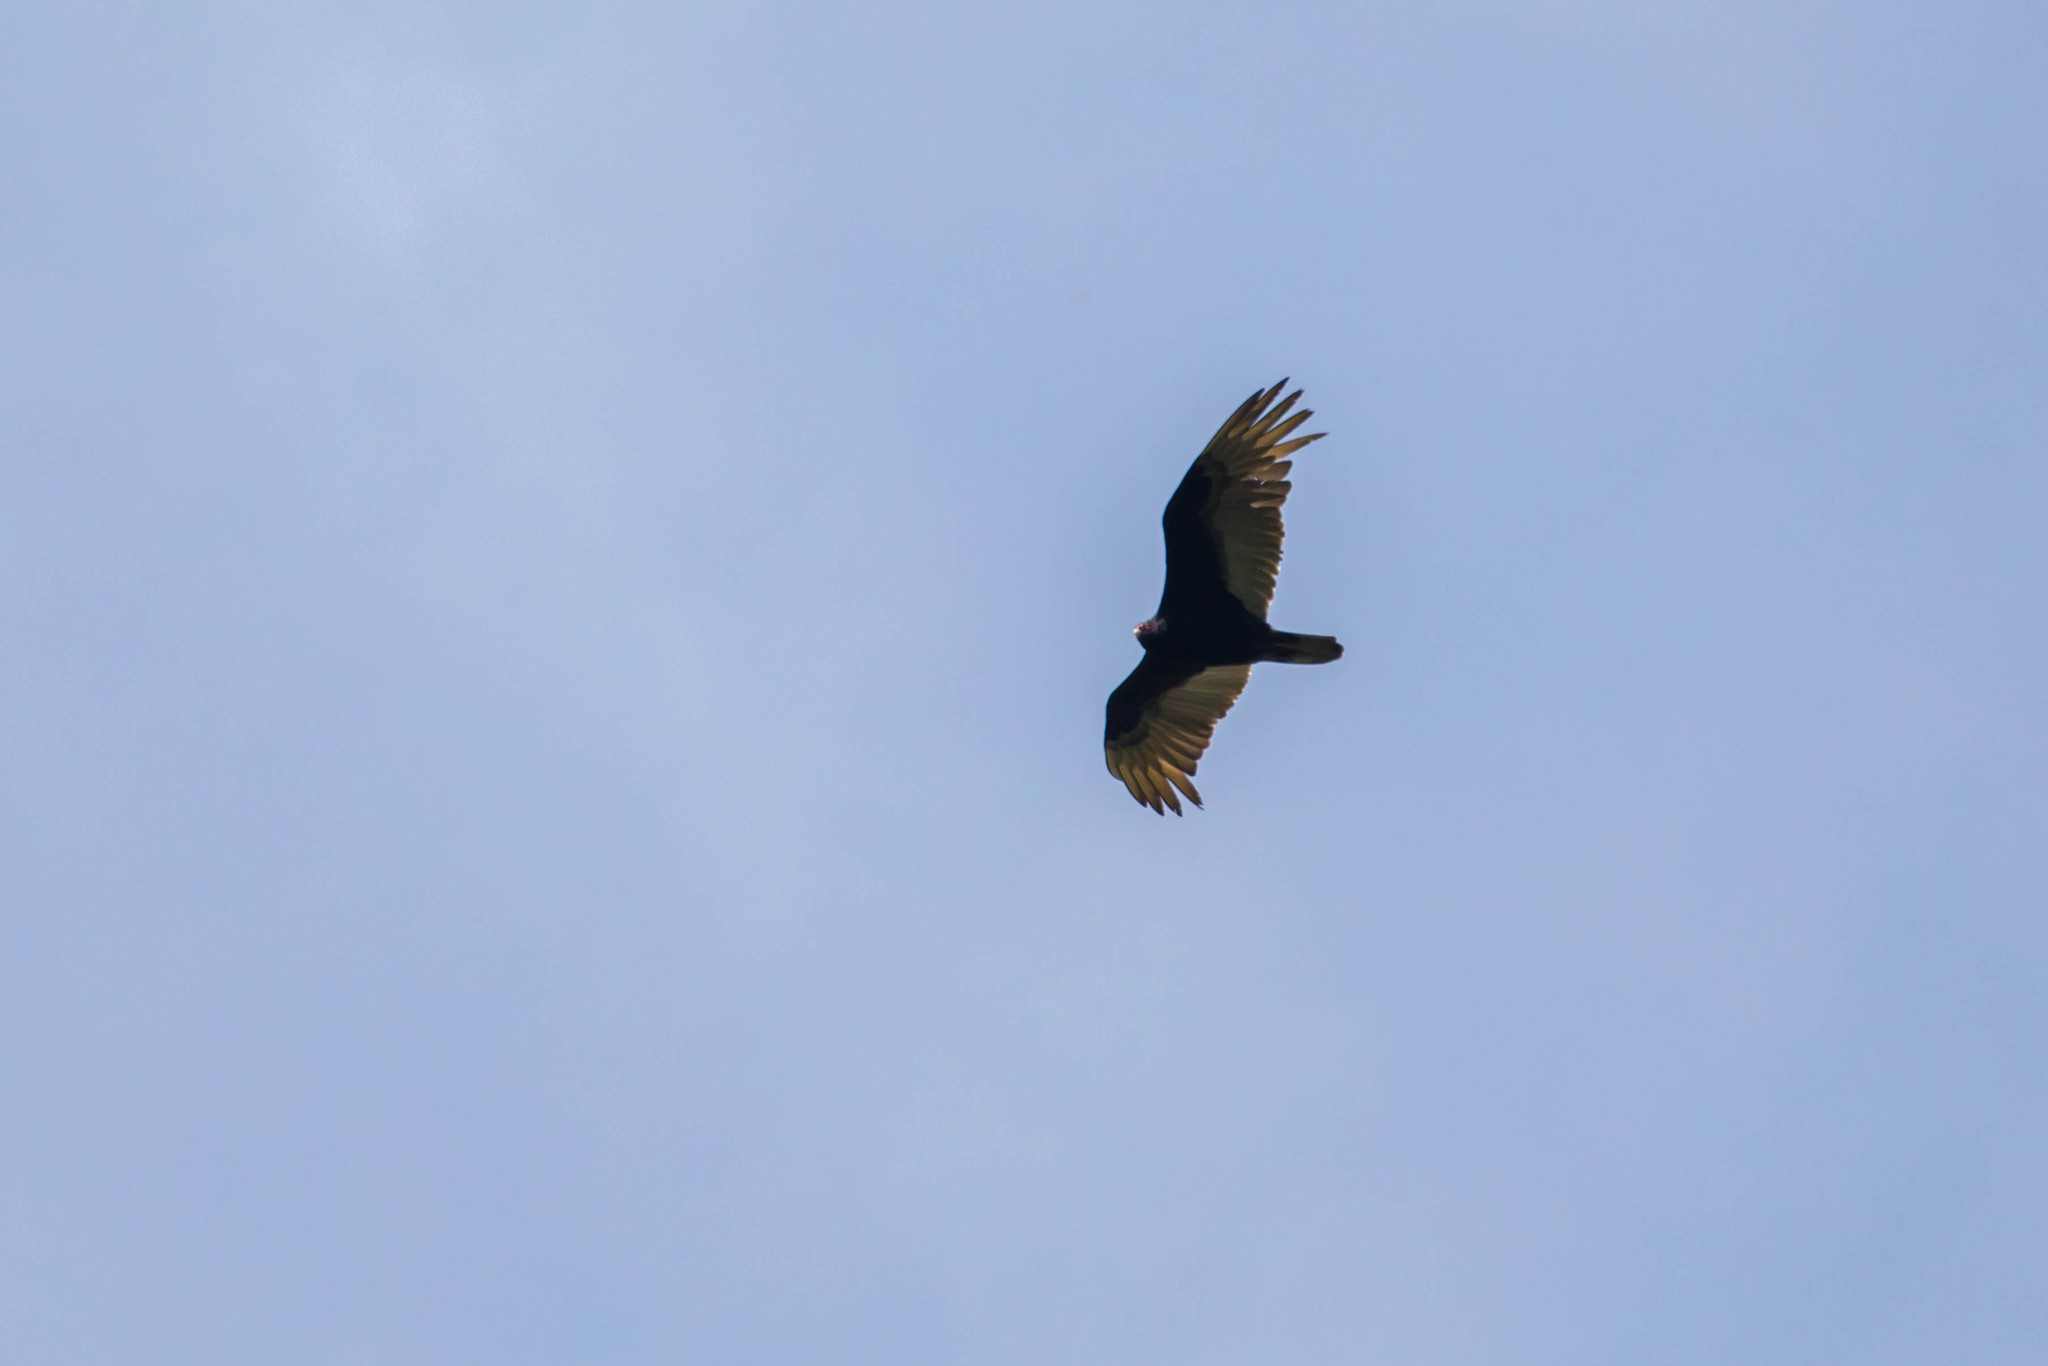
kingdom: Animalia
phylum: Chordata
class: Aves
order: Accipitriformes
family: Cathartidae
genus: Cathartes
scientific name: Cathartes aura
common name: Turkey vulture
